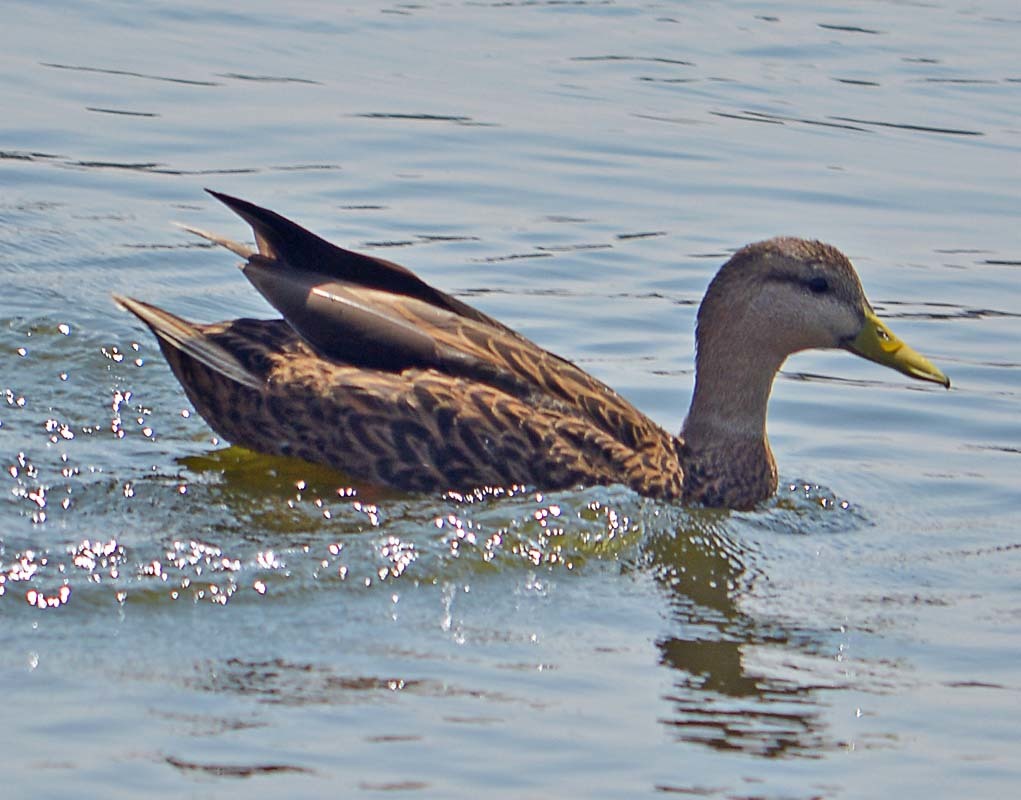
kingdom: Animalia
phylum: Chordata
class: Aves
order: Anseriformes
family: Anatidae
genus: Anas
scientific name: Anas diazi
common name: Mexican duck
